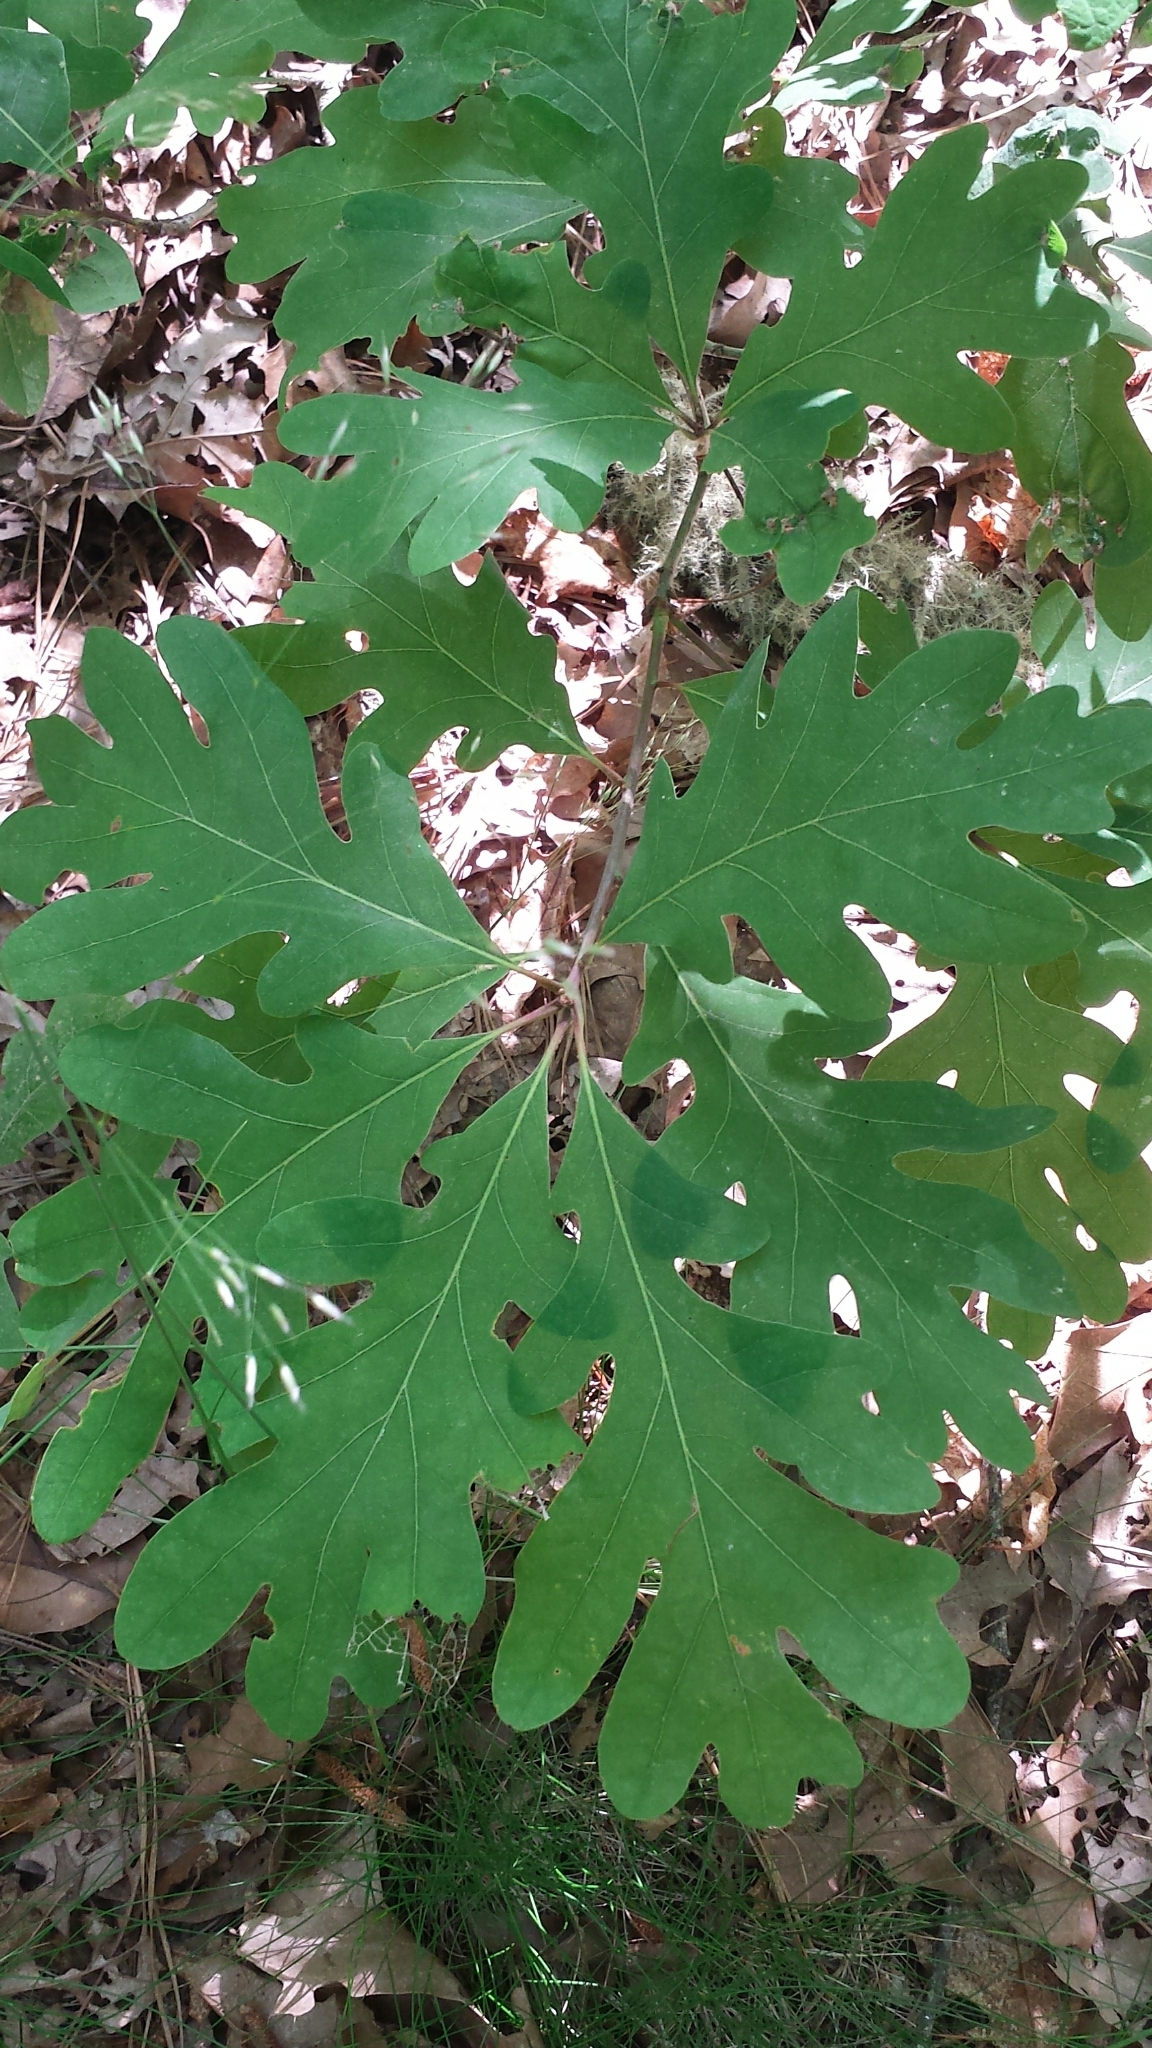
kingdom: Plantae
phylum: Tracheophyta
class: Magnoliopsida
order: Fagales
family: Fagaceae
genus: Quercus
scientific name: Quercus alba
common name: White oak
